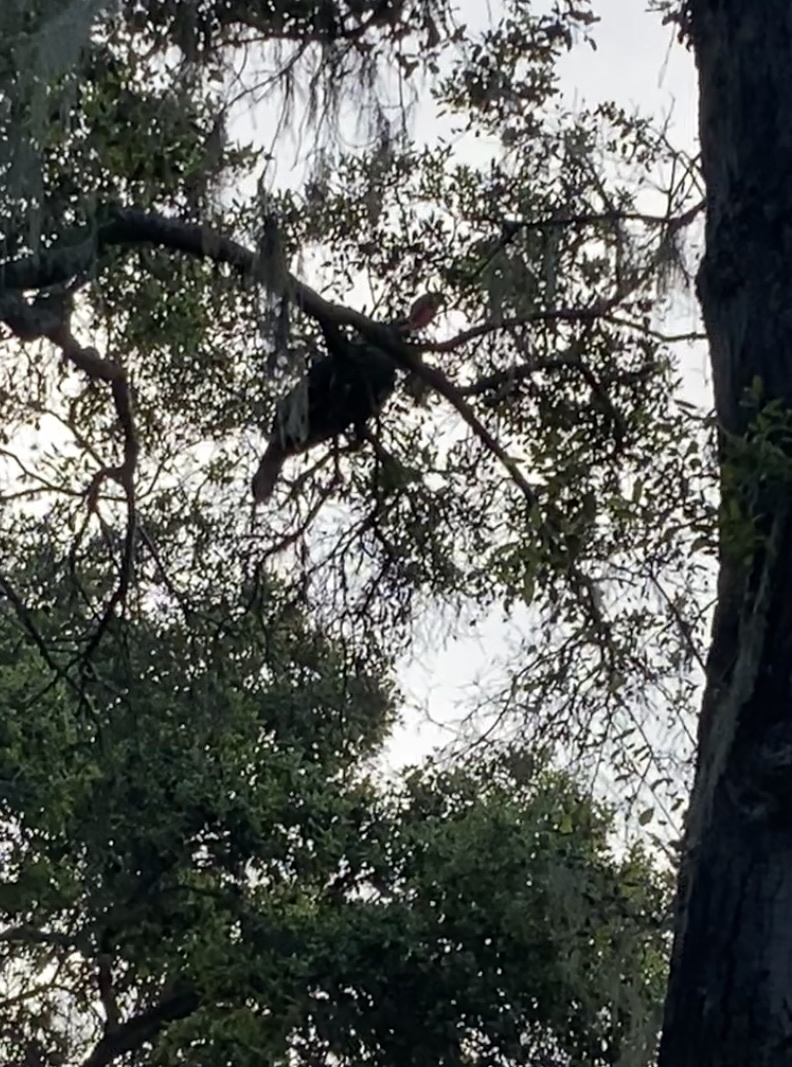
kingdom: Animalia
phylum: Chordata
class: Aves
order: Galliformes
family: Phasianidae
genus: Meleagris
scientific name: Meleagris gallopavo
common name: Wild turkey
